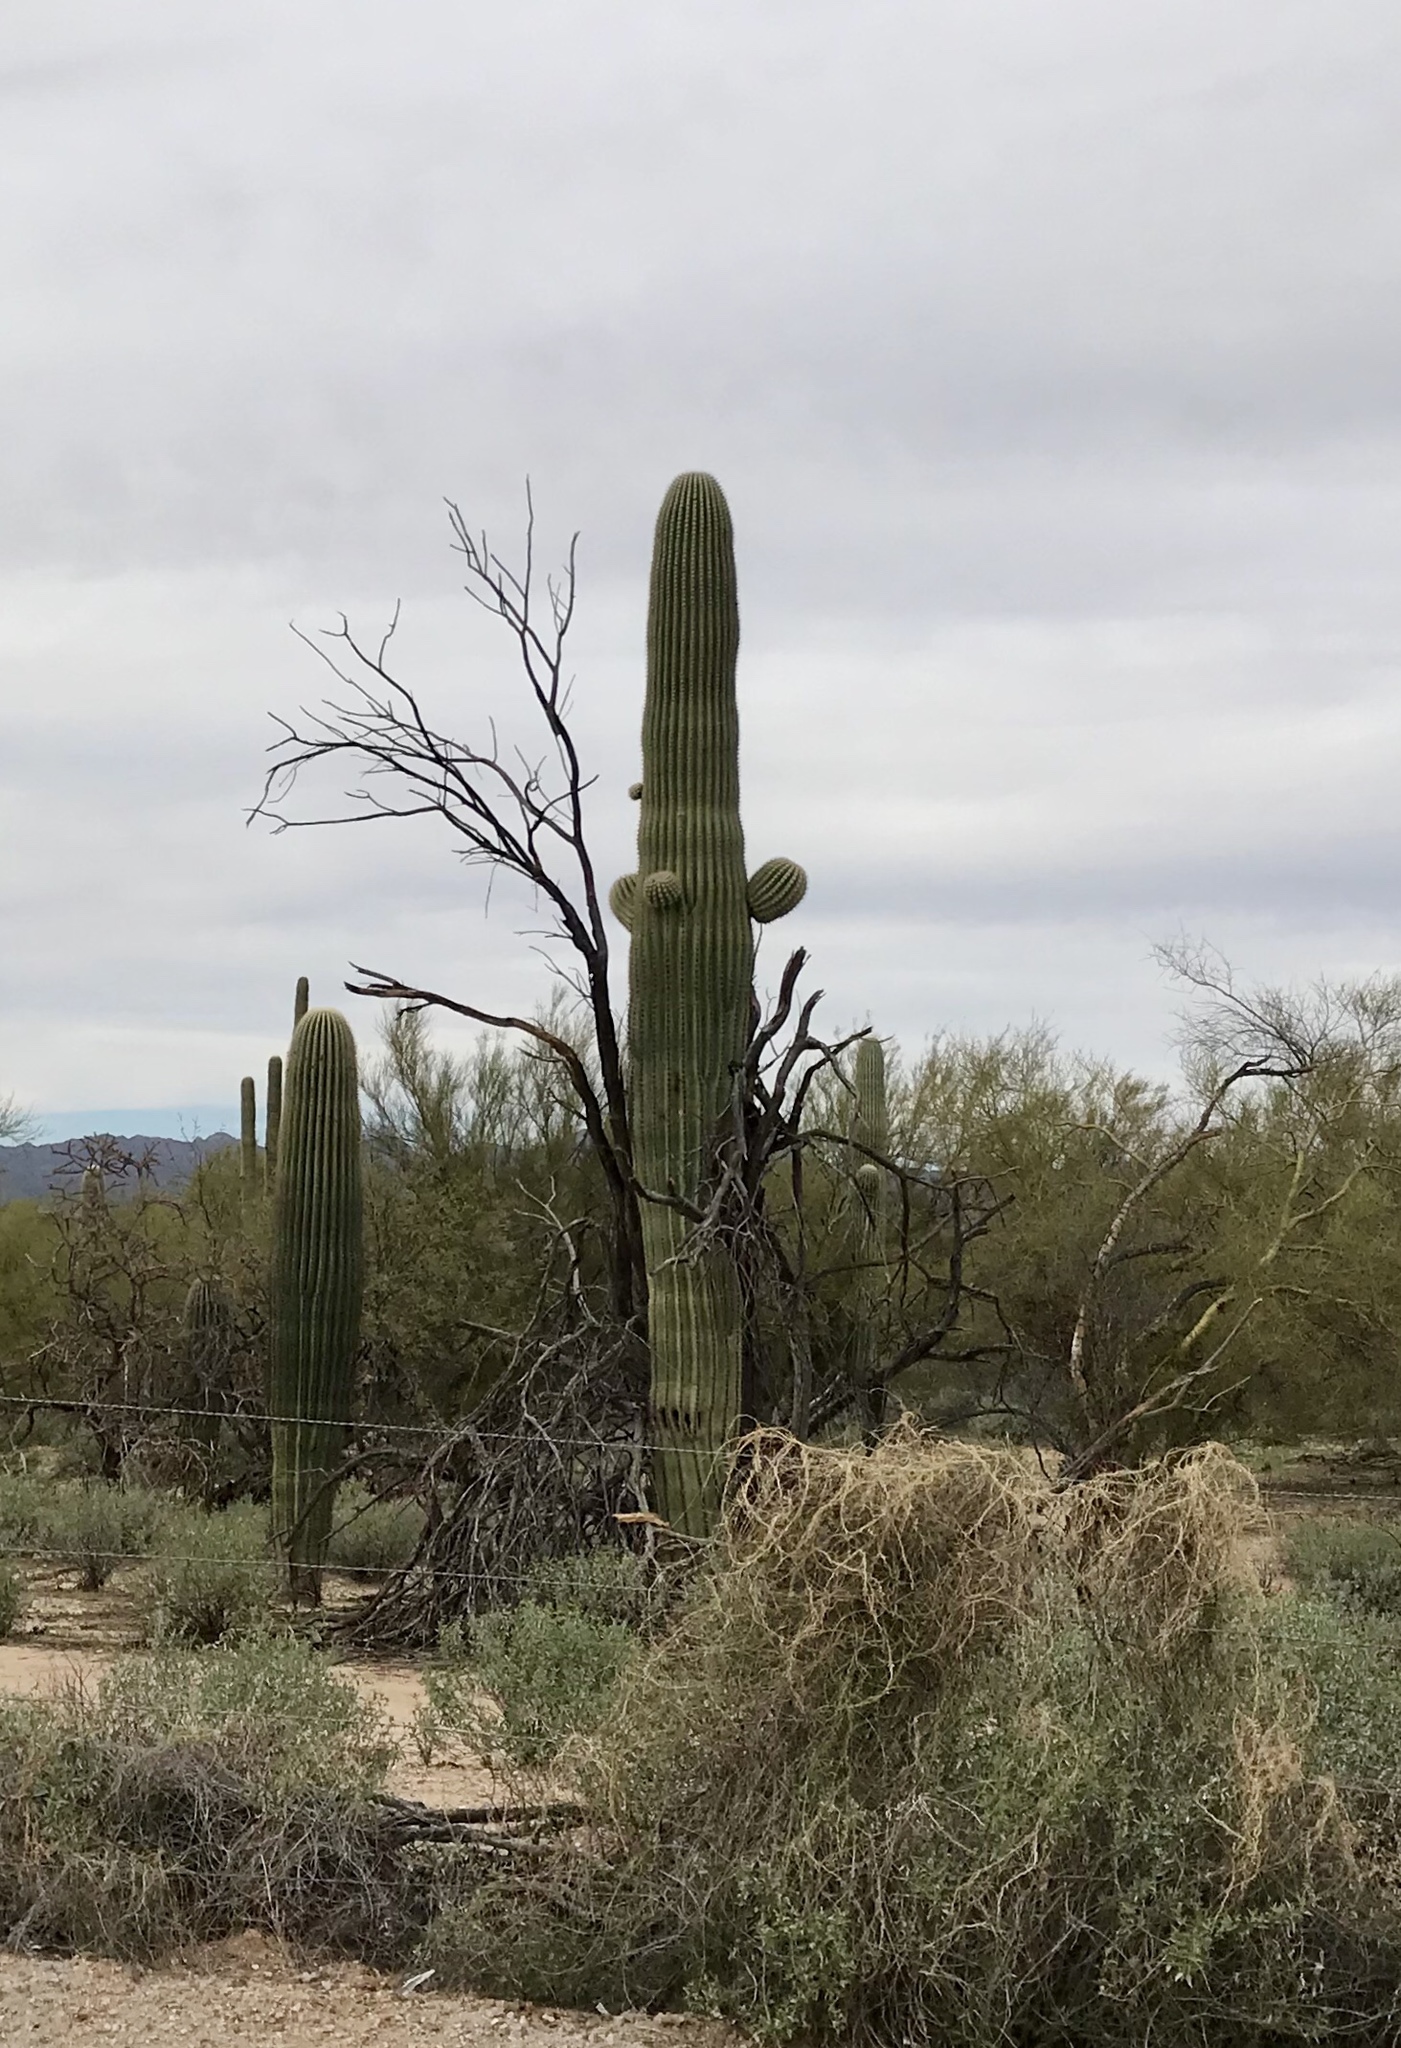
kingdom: Plantae
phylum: Tracheophyta
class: Magnoliopsida
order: Caryophyllales
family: Cactaceae
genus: Carnegiea
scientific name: Carnegiea gigantea
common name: Saguaro
